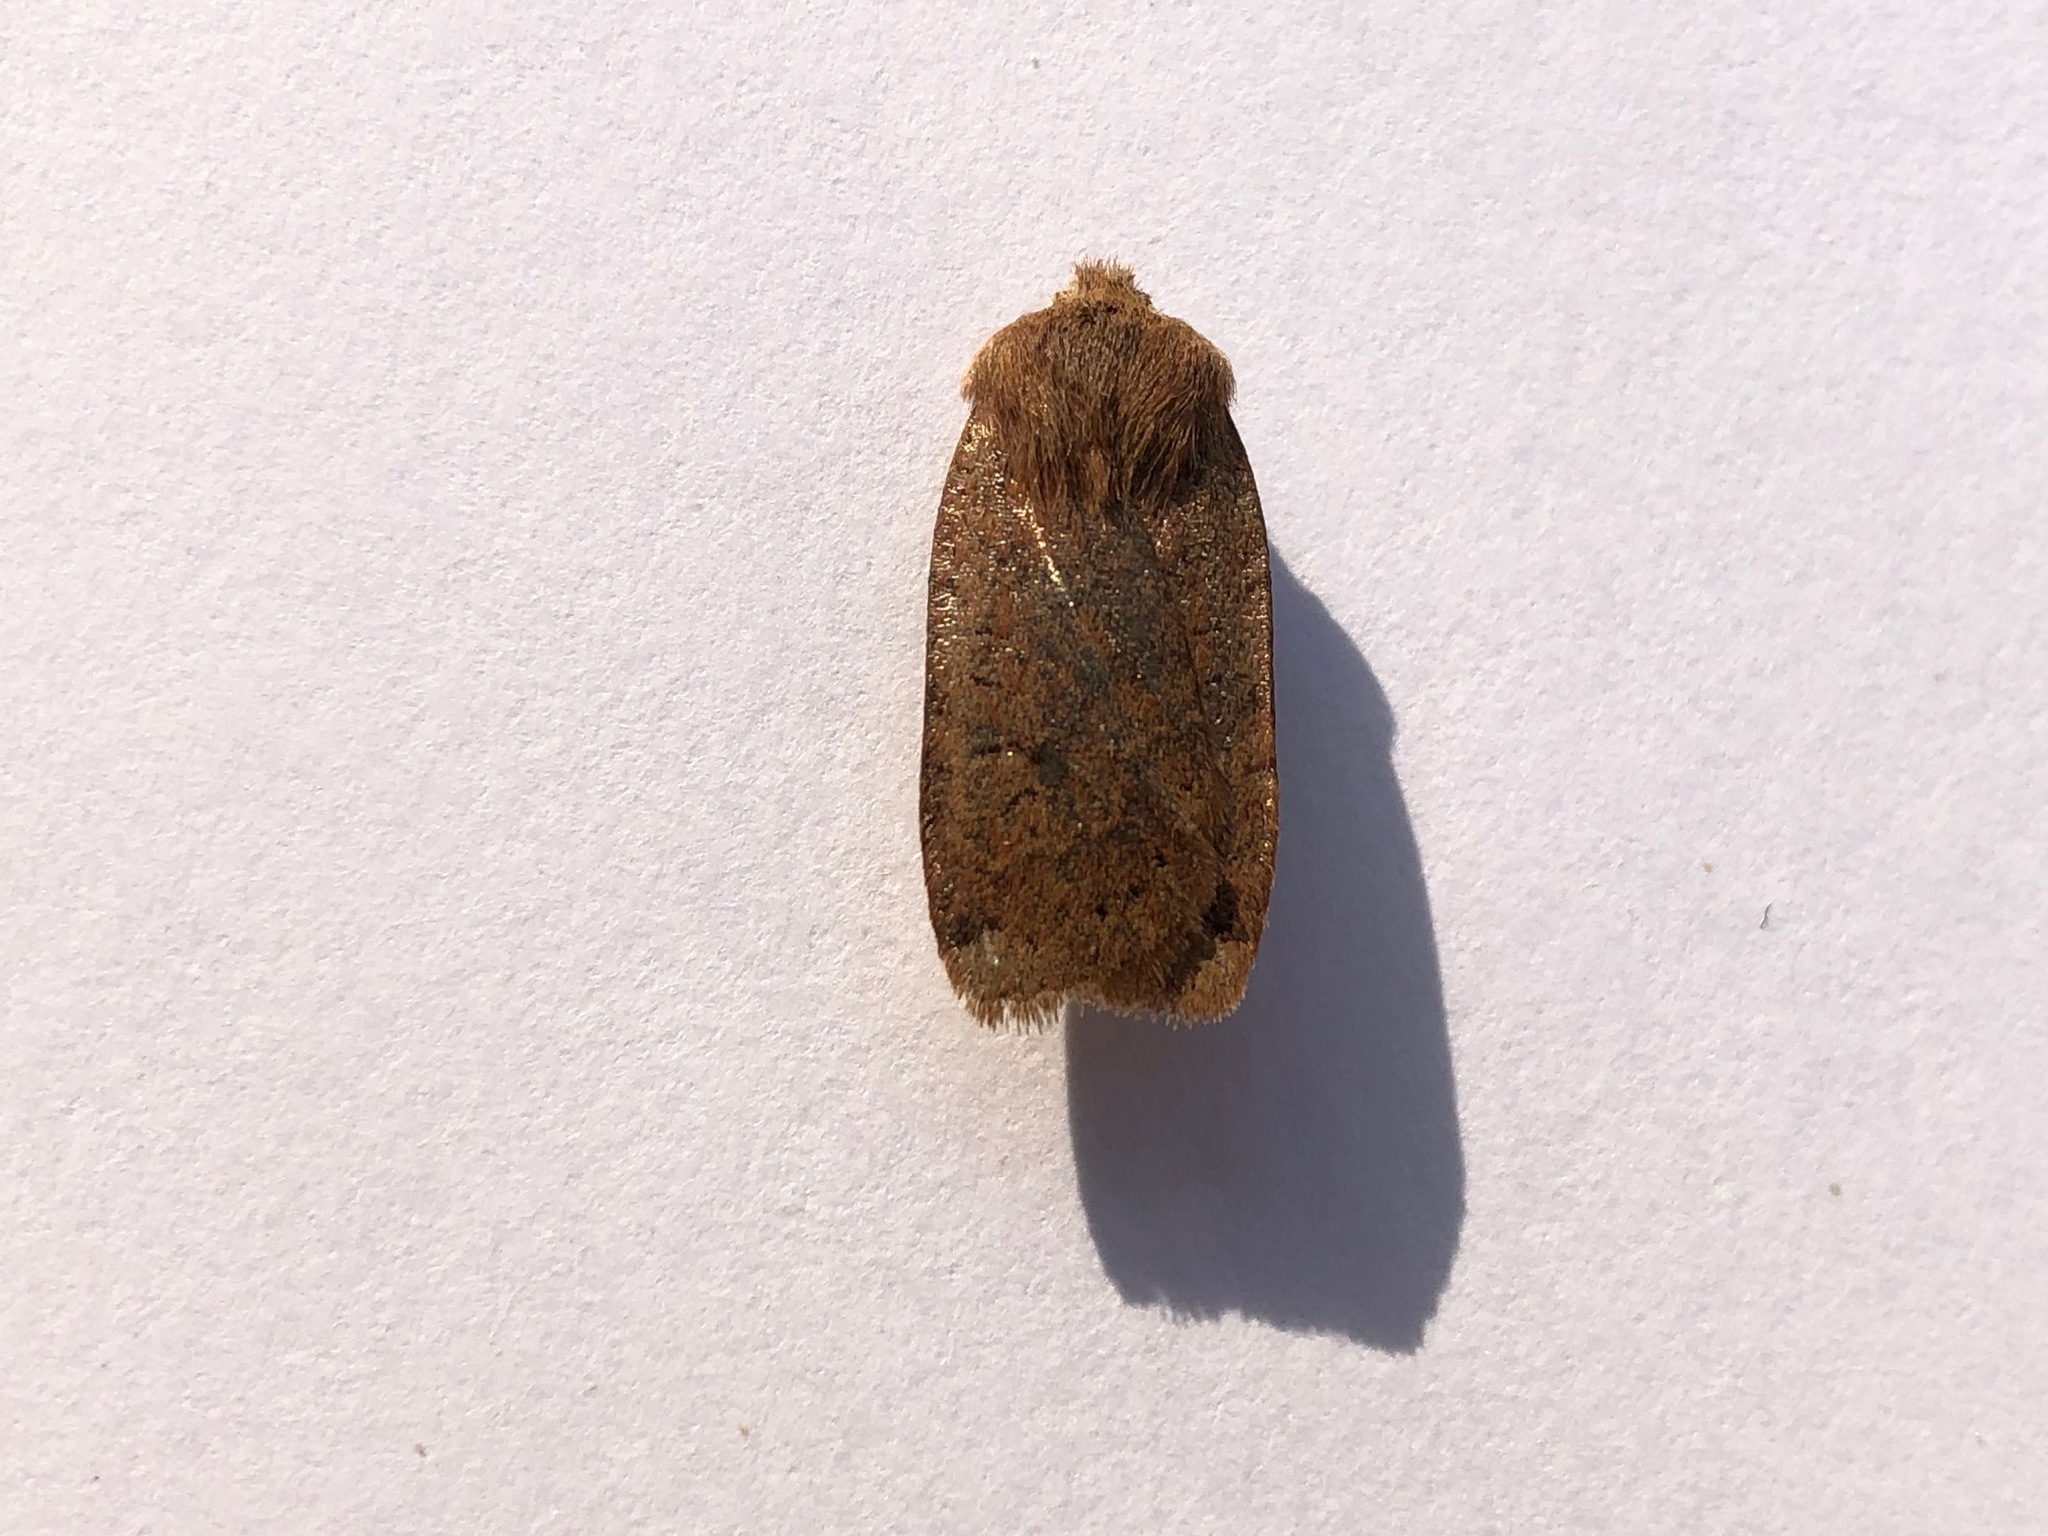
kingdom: Animalia
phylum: Arthropoda
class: Insecta
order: Lepidoptera
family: Noctuidae
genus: Conistra
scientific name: Conistra vaccinii
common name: Chestnut
